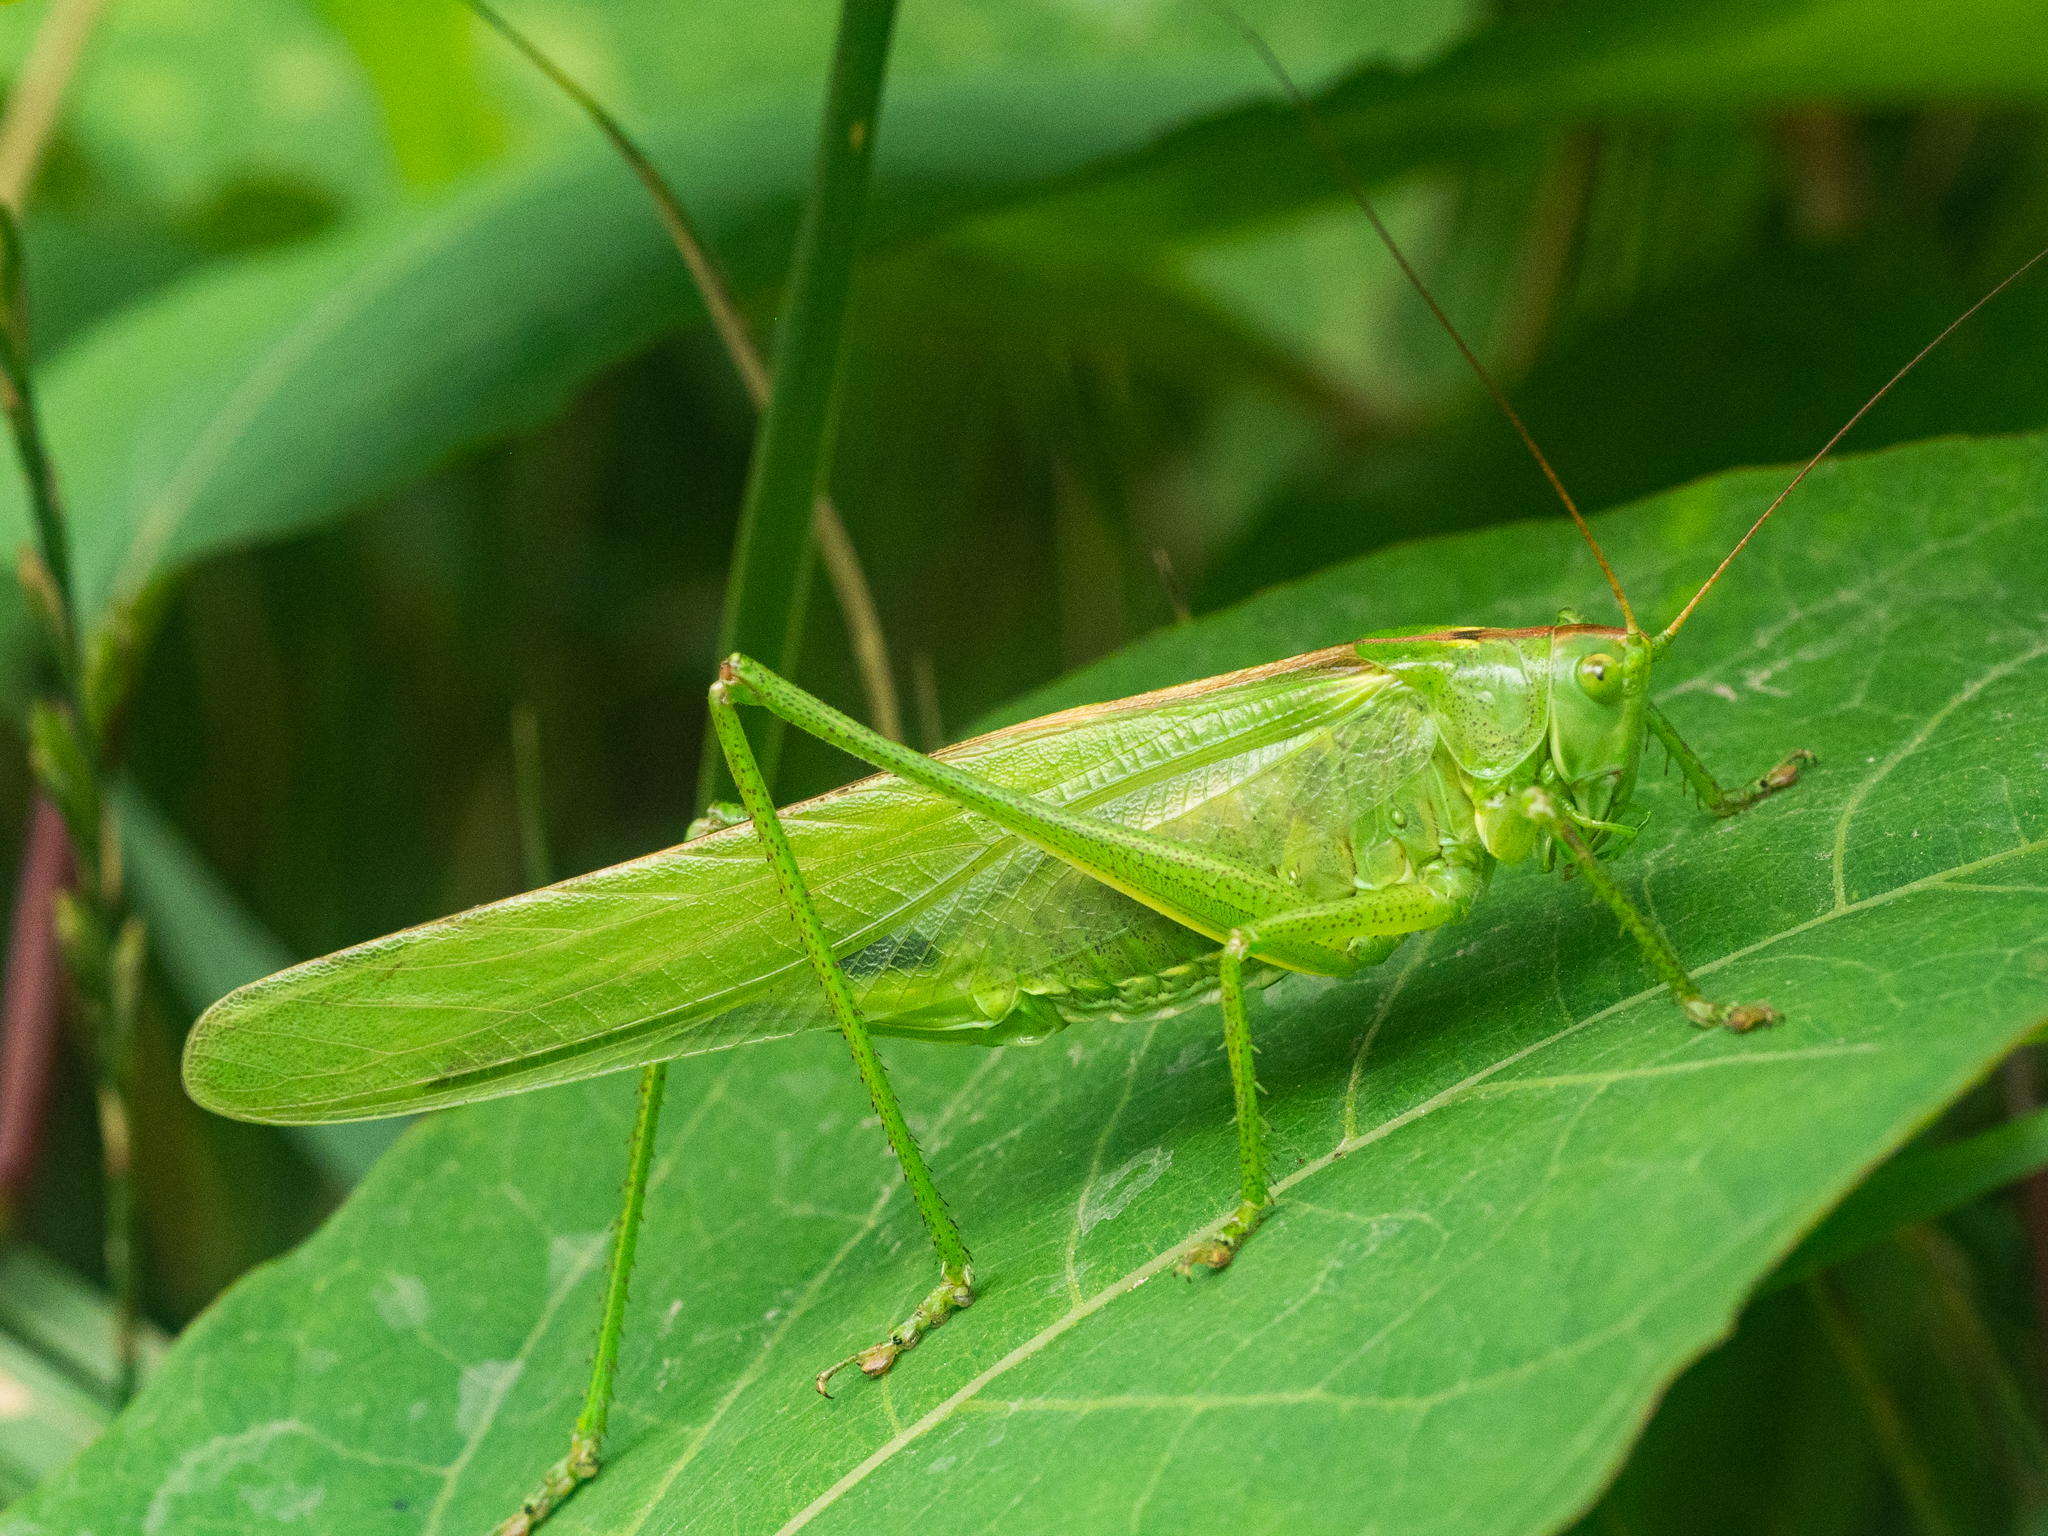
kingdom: Animalia
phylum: Arthropoda
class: Insecta
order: Orthoptera
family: Tettigoniidae
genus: Tettigonia
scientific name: Tettigonia viridissima
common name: Great green bush-cricket
